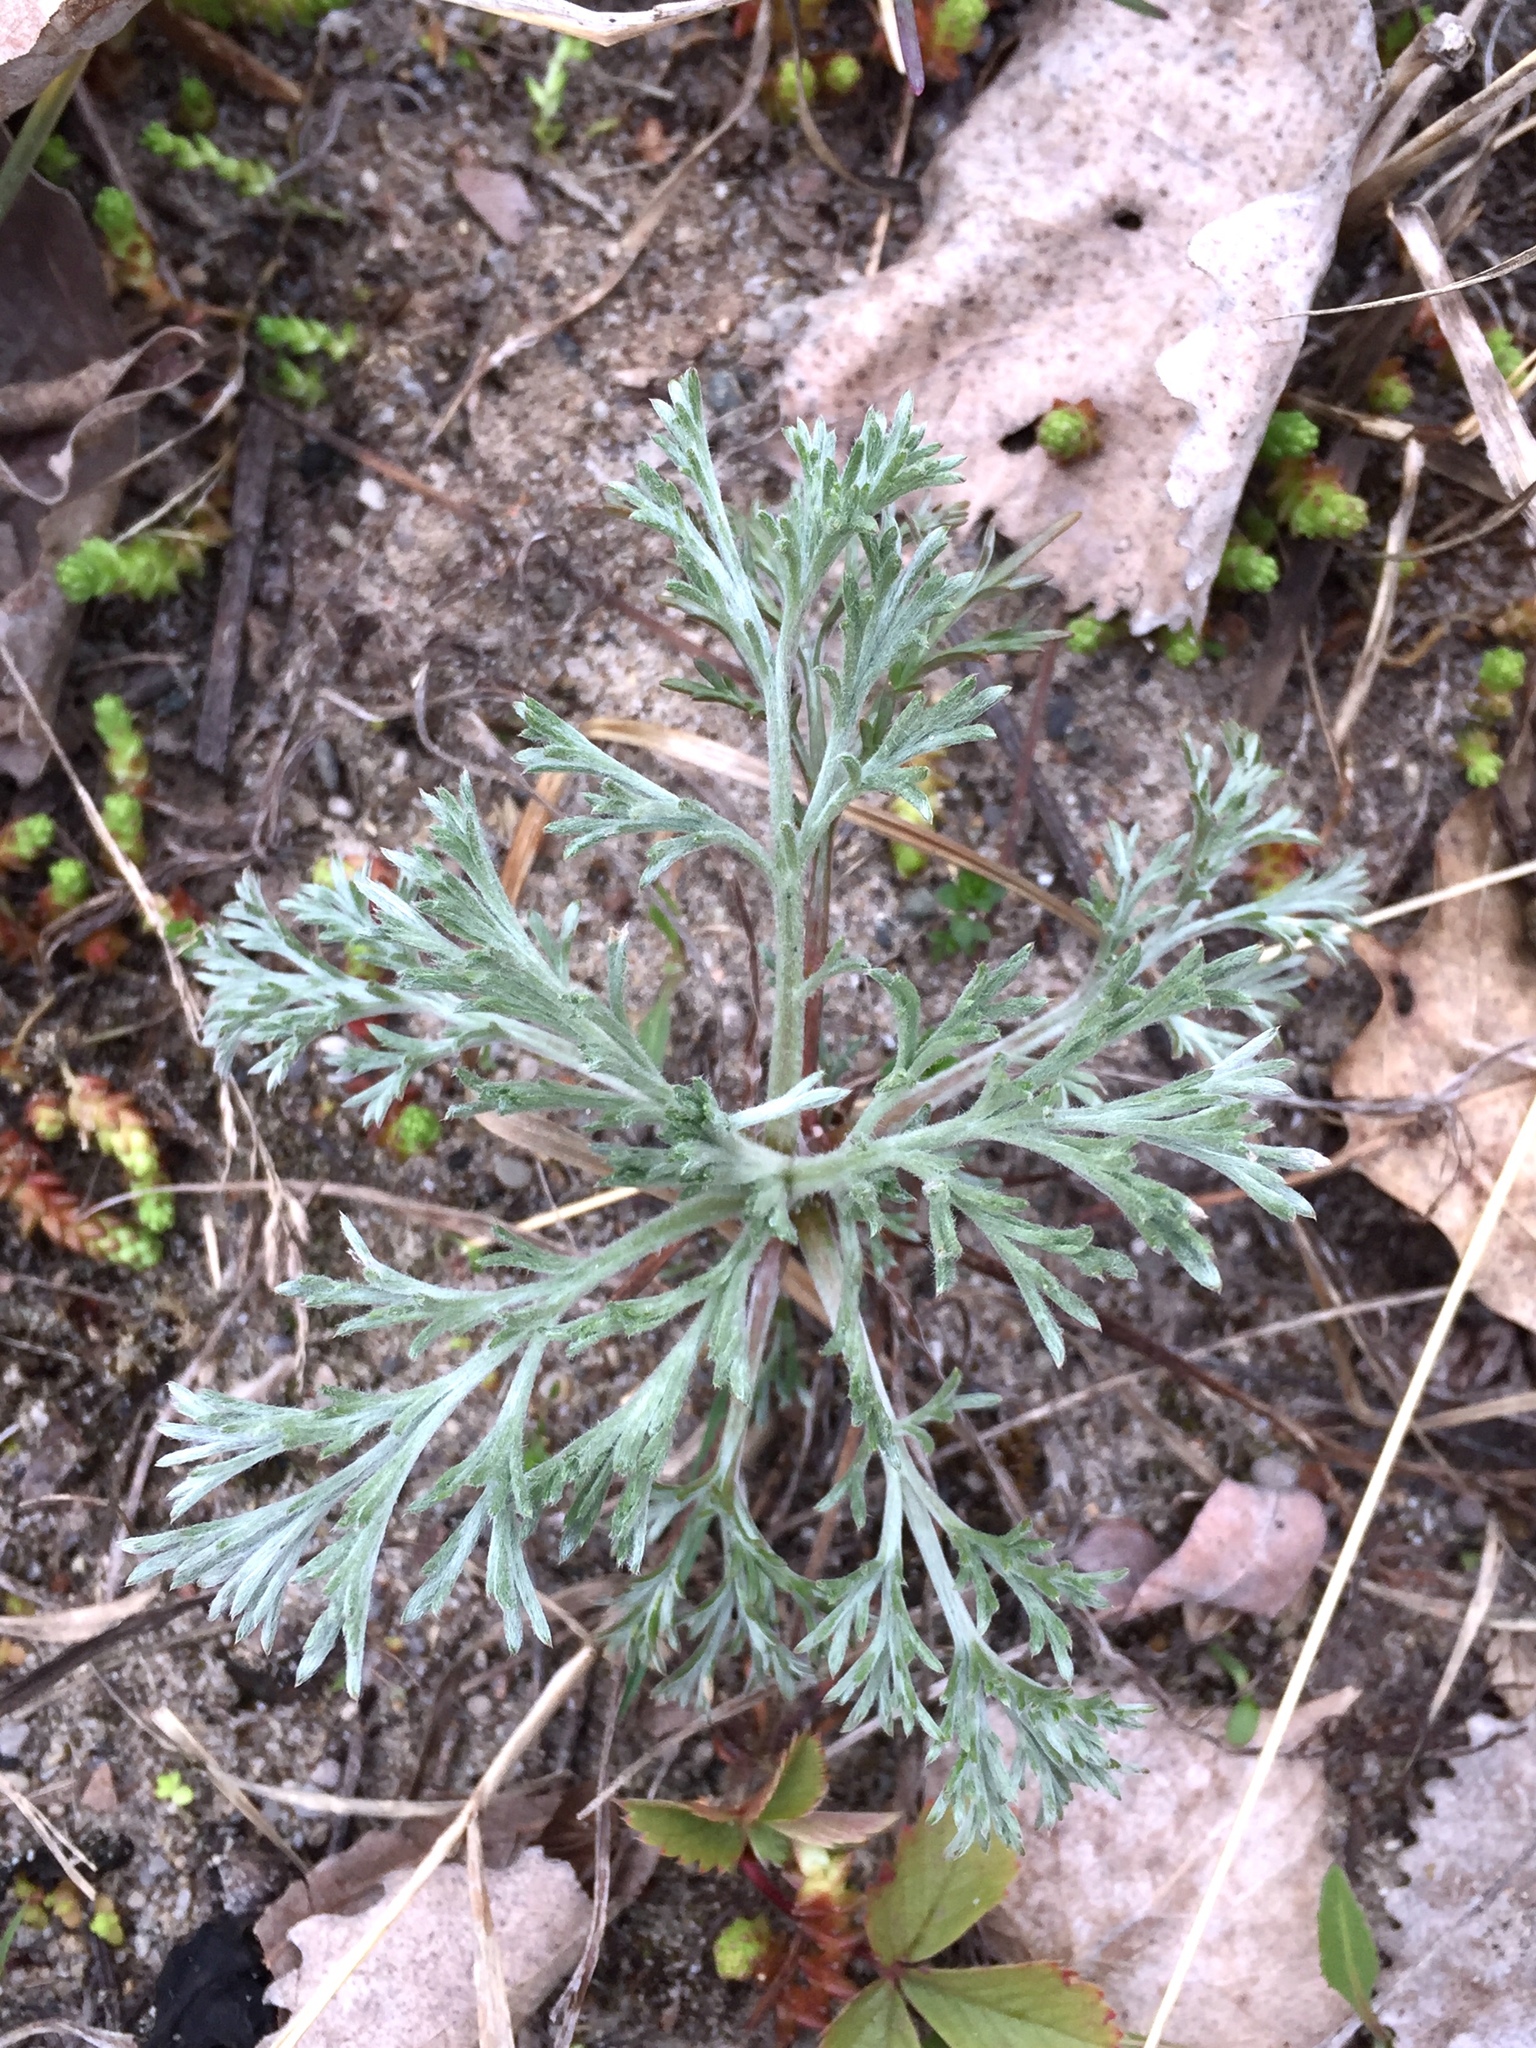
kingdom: Plantae
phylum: Tracheophyta
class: Magnoliopsida
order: Asterales
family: Asteraceae
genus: Artemisia
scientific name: Artemisia campestris
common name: Field wormwood
